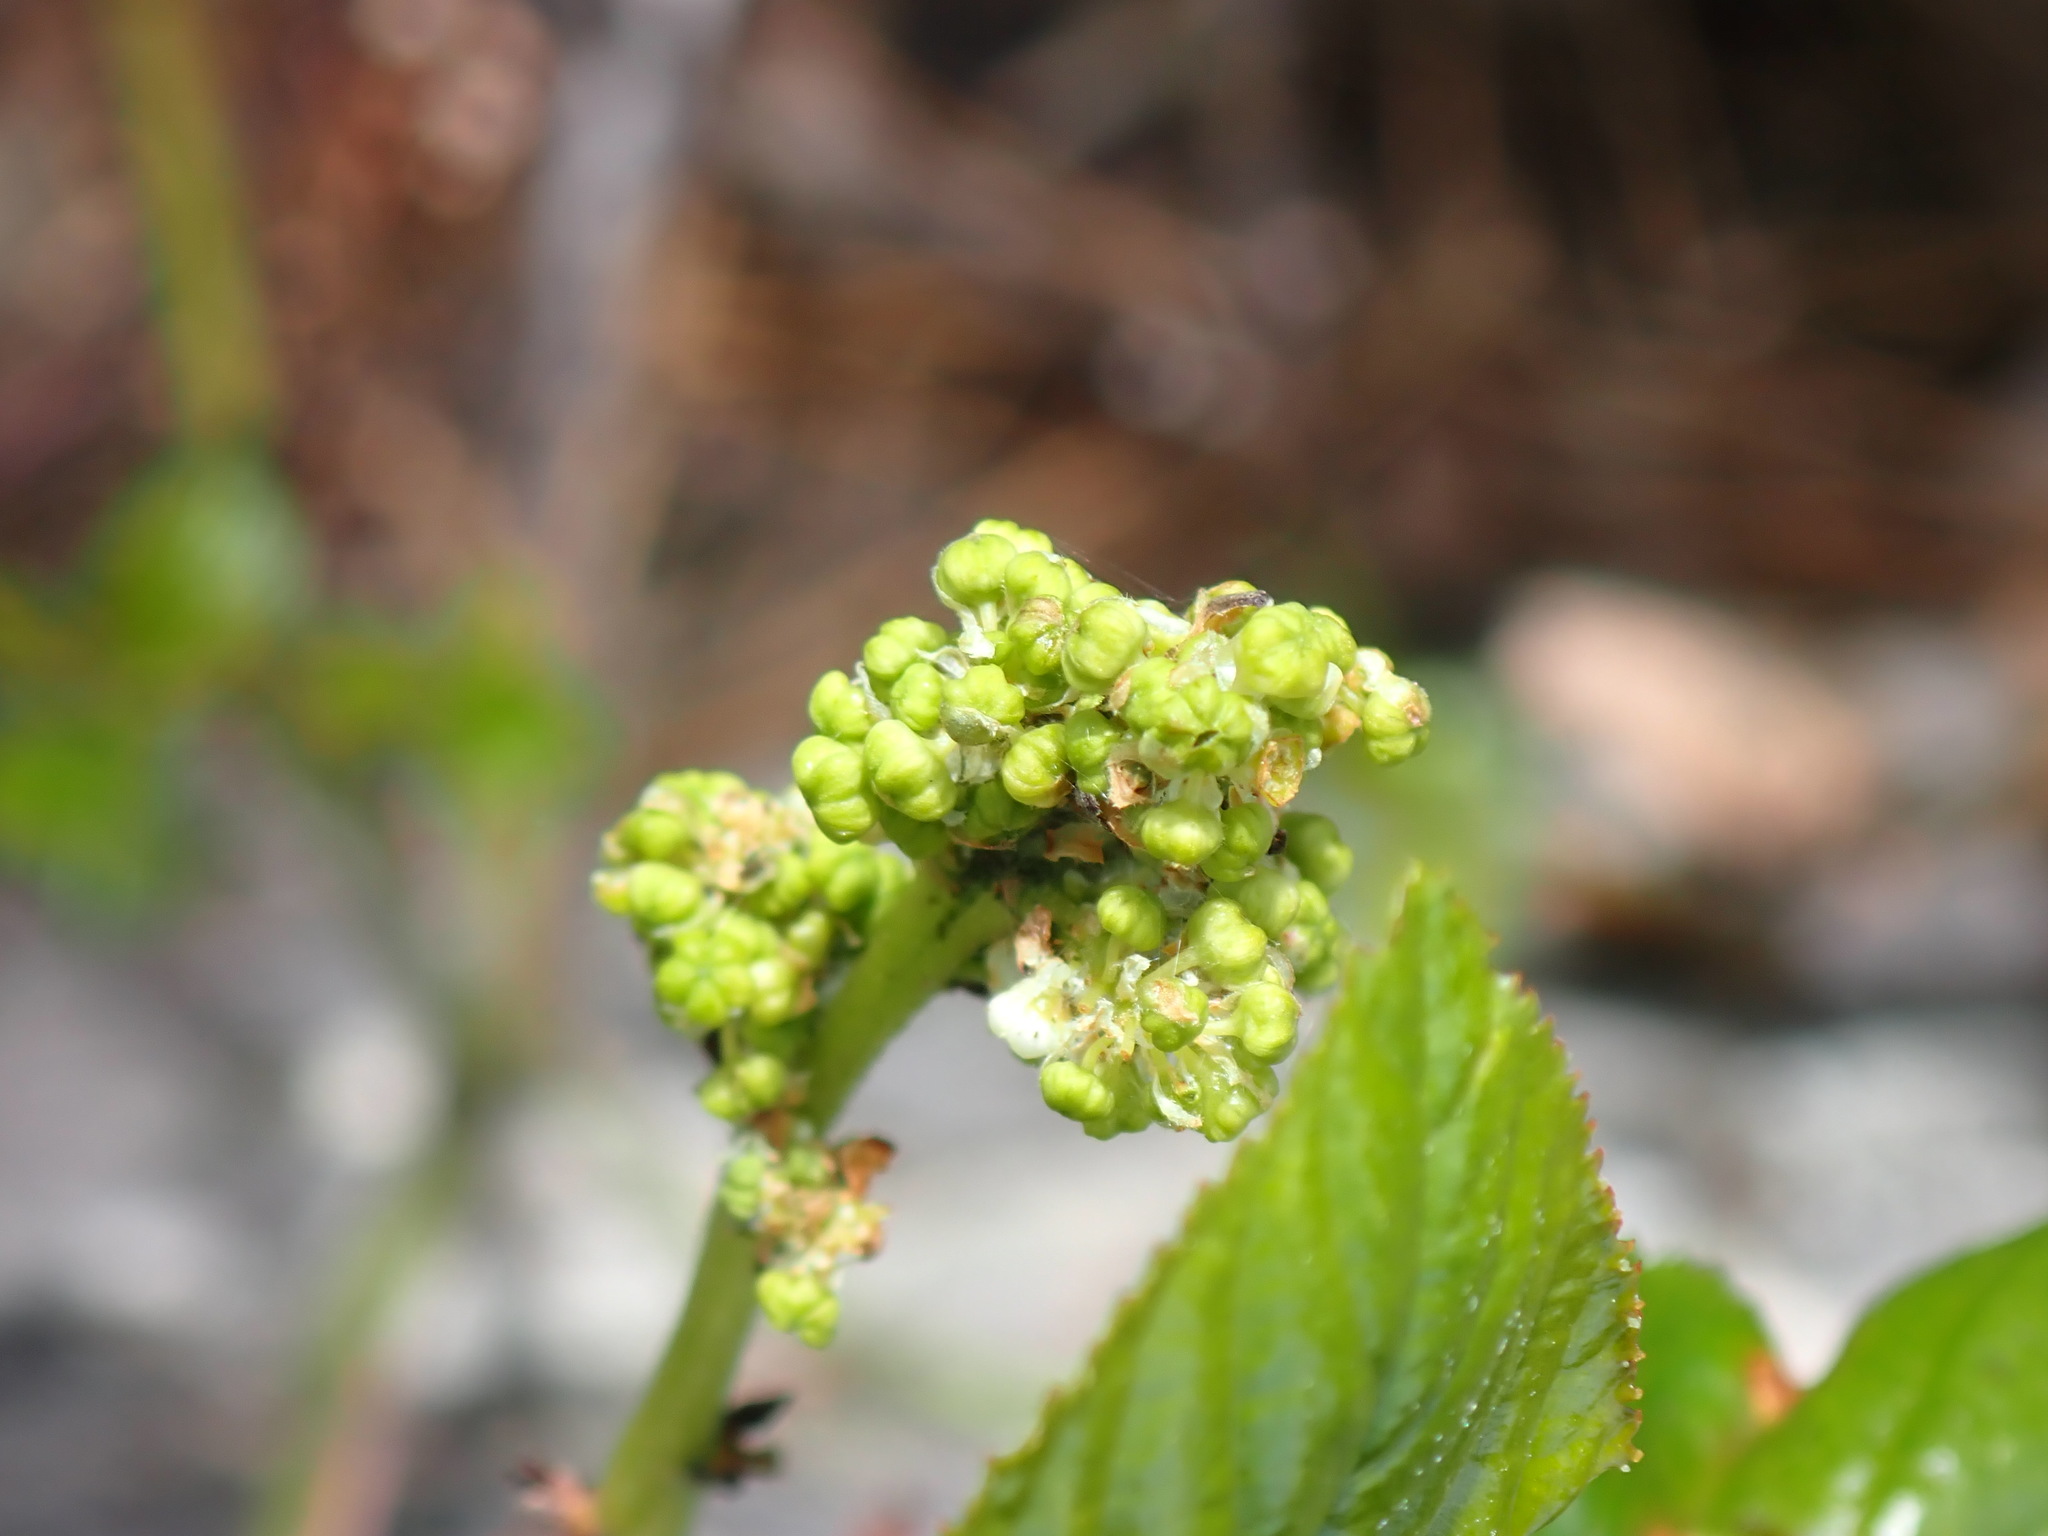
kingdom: Plantae
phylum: Tracheophyta
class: Magnoliopsida
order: Rosales
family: Rhamnaceae
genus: Ceanothus
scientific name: Ceanothus velutinus
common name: Snowbrush
